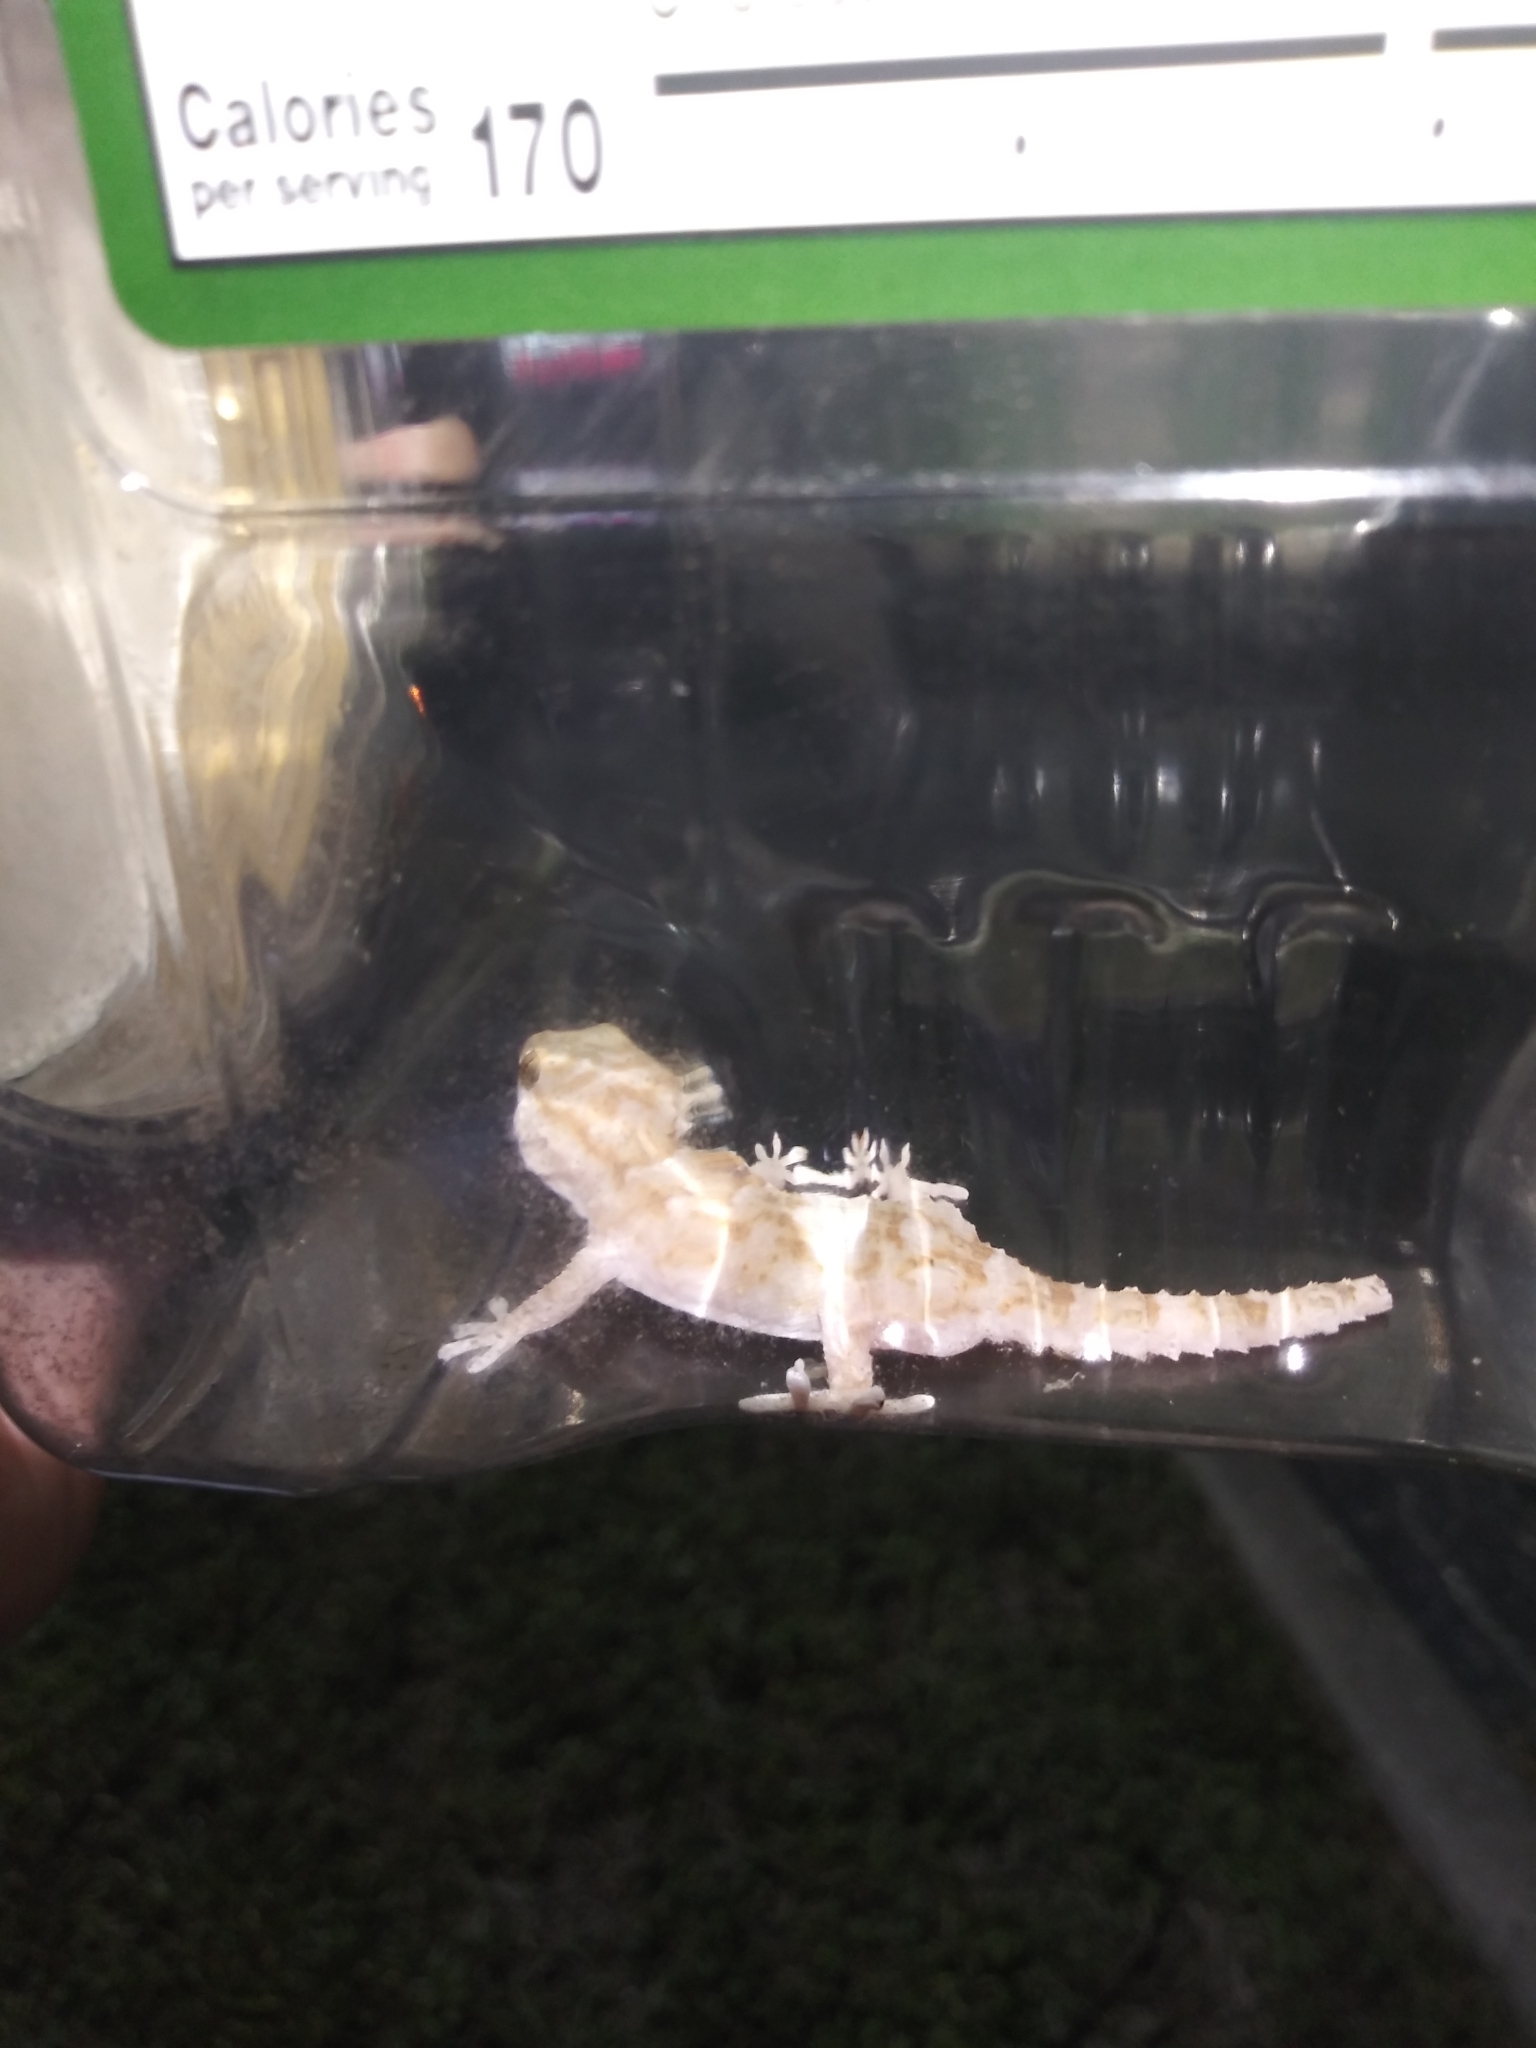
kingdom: Animalia
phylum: Chordata
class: Squamata
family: Phyllodactylidae
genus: Tarentola
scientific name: Tarentola annularis
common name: White-spotted wall gecko
